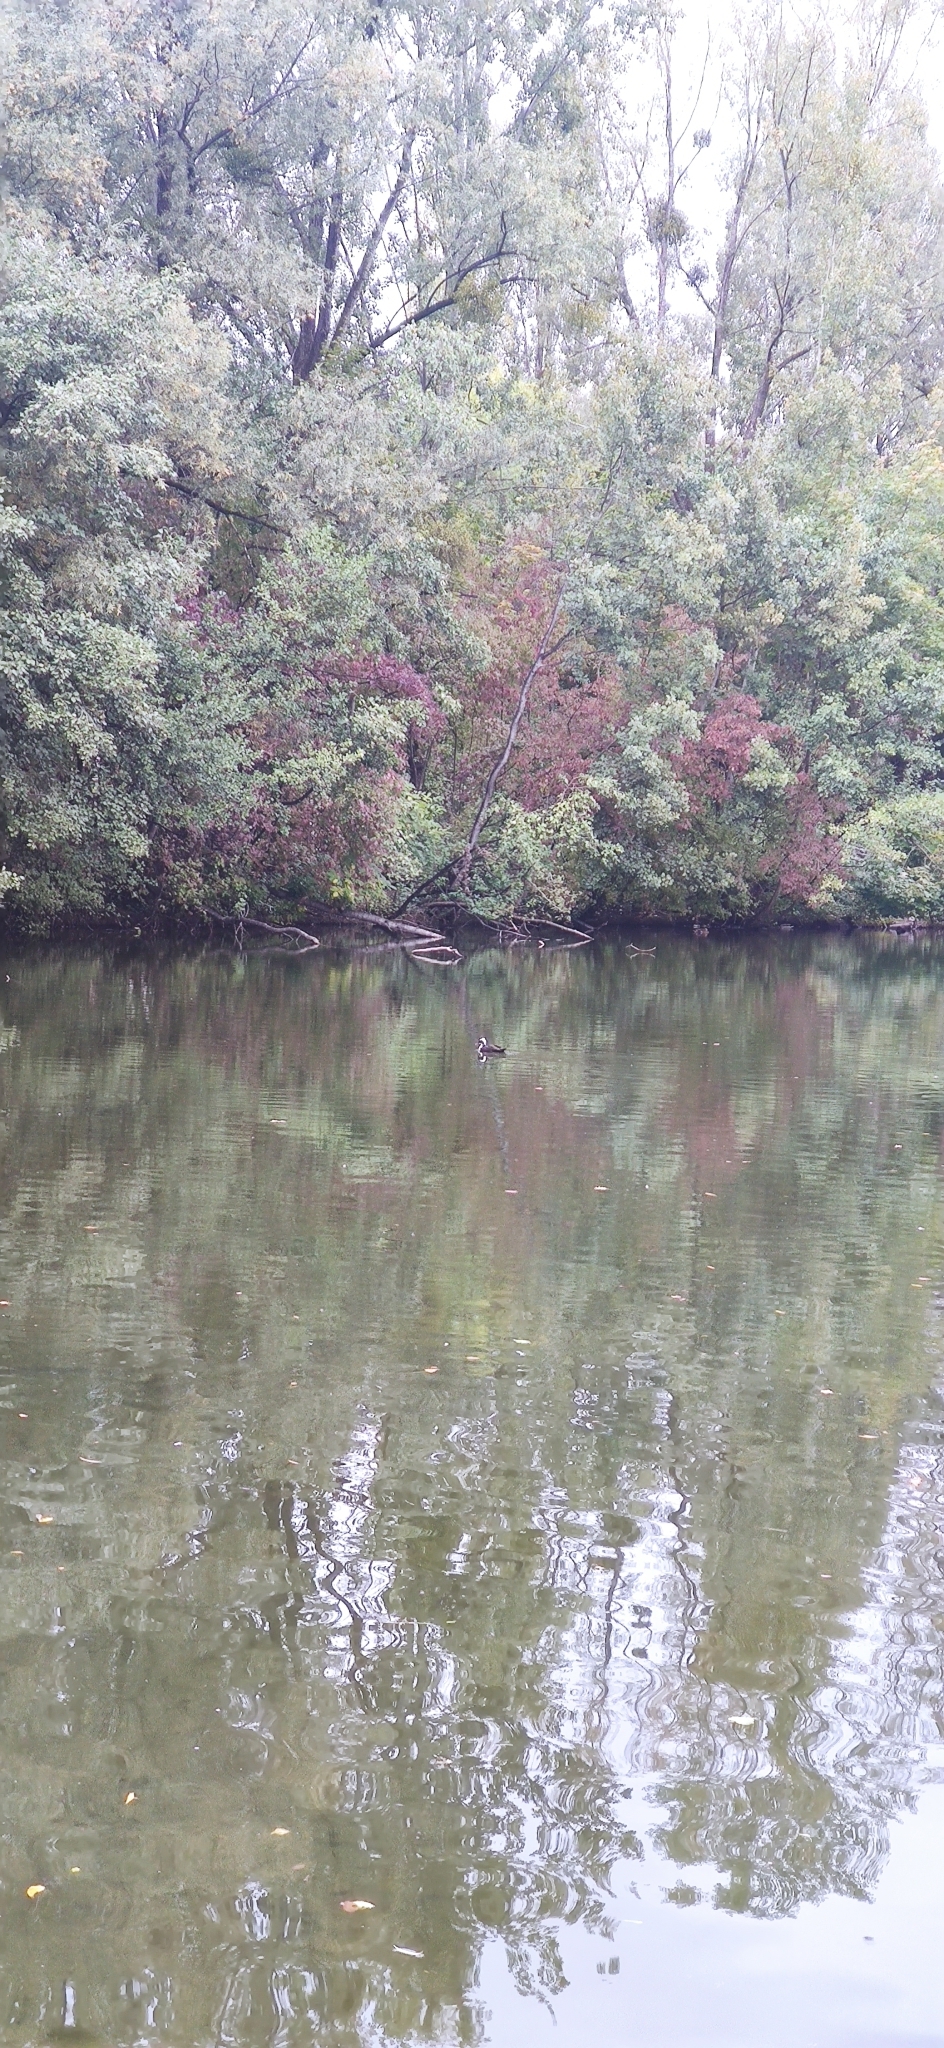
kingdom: Animalia
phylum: Chordata
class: Aves
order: Anseriformes
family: Anatidae
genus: Anas
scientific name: Anas platyrhynchos
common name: Mallard
